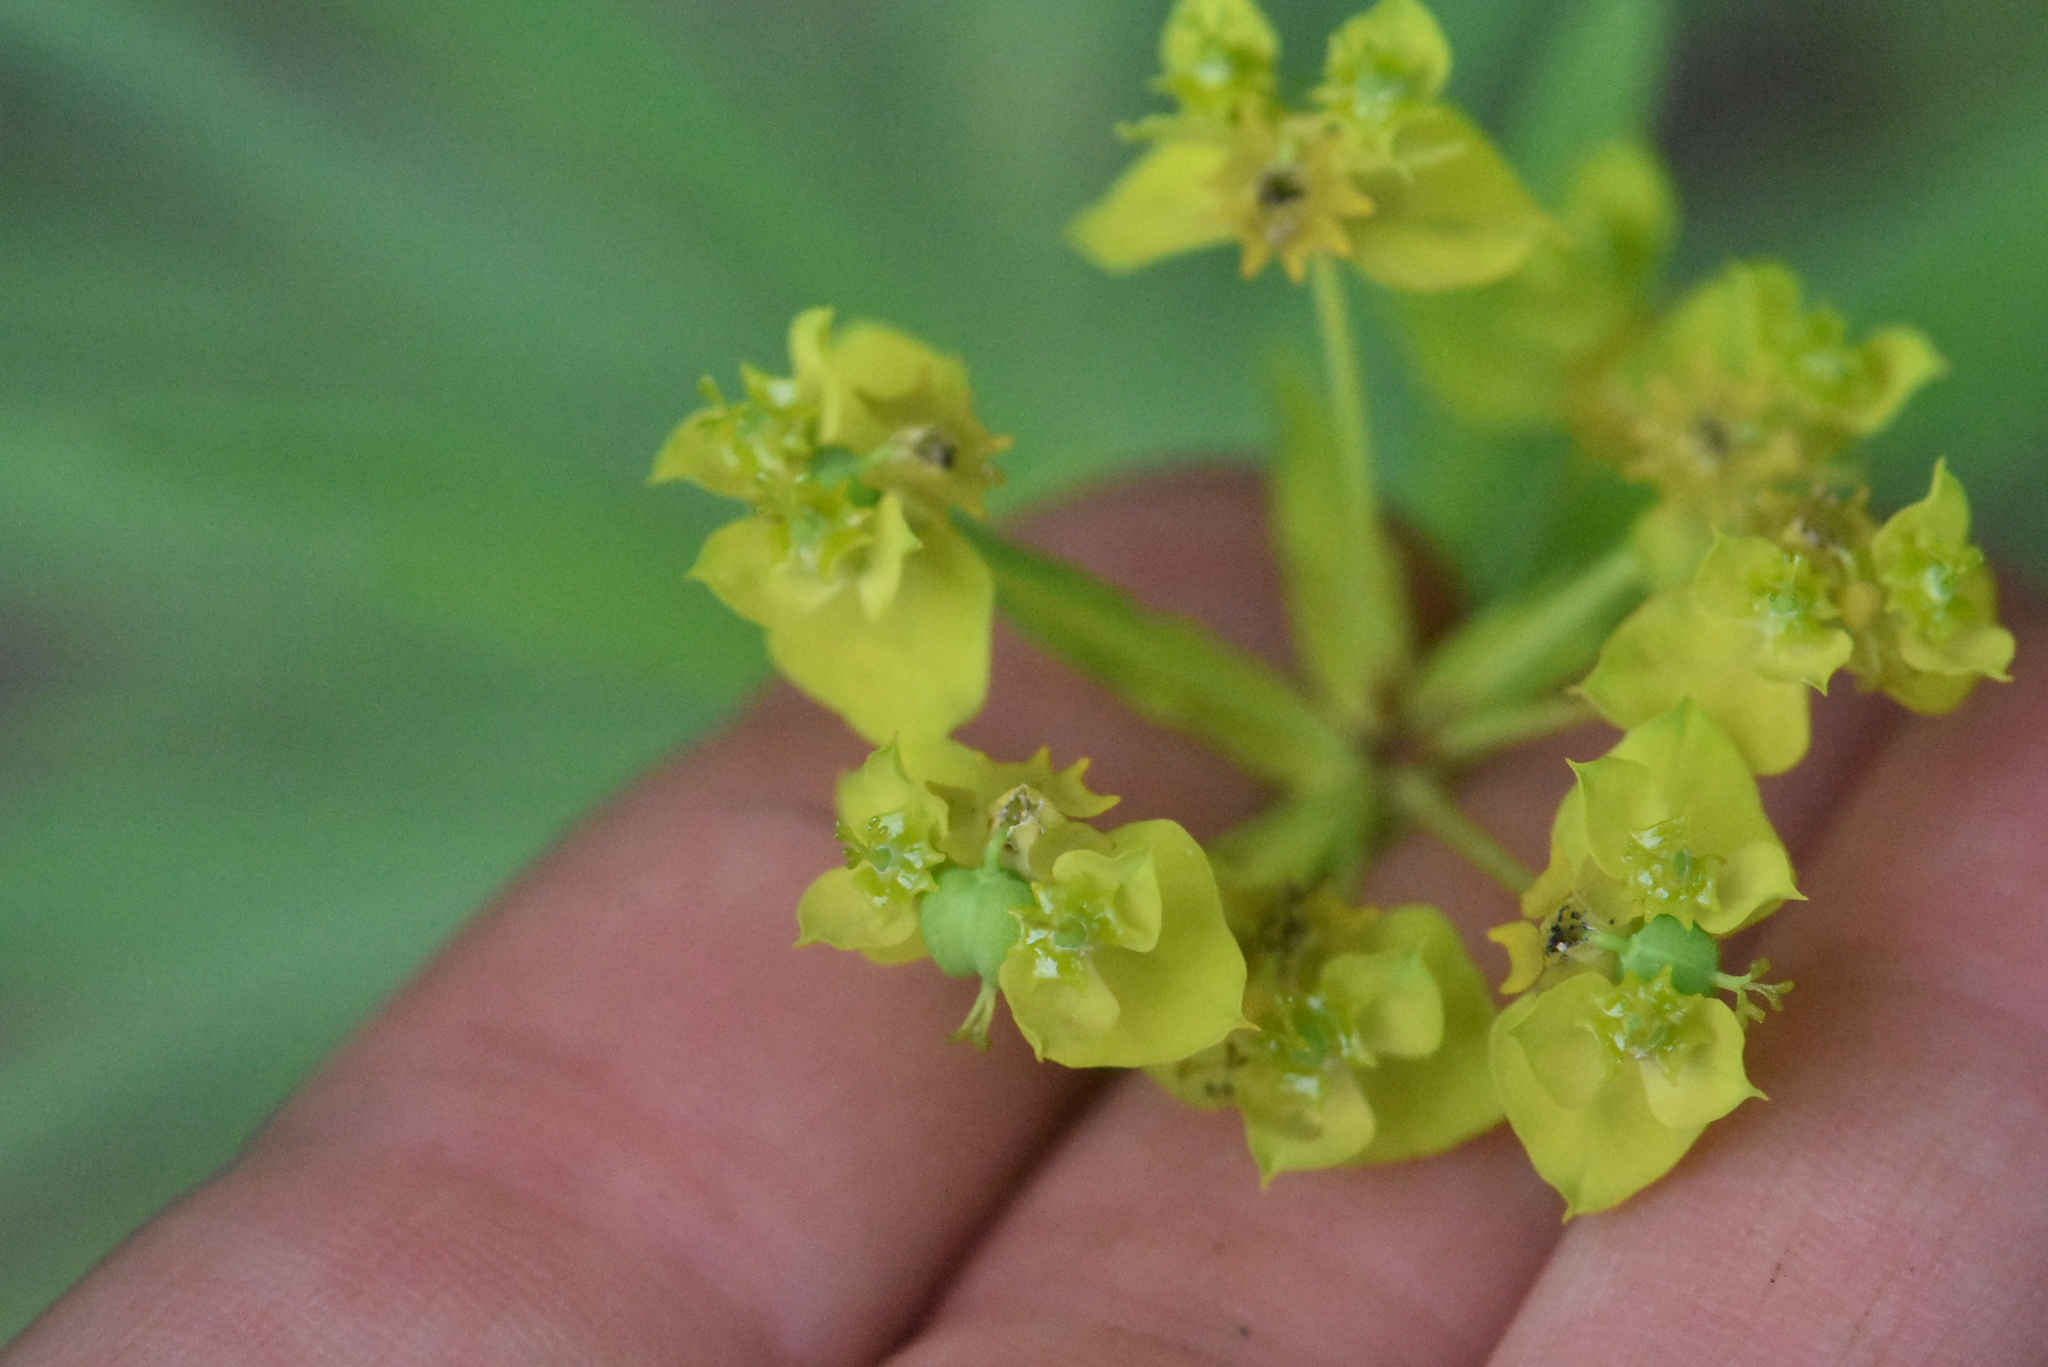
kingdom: Plantae
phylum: Tracheophyta
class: Magnoliopsida
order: Malpighiales
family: Euphorbiaceae
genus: Euphorbia
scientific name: Euphorbia virgata
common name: Leafy spurge
